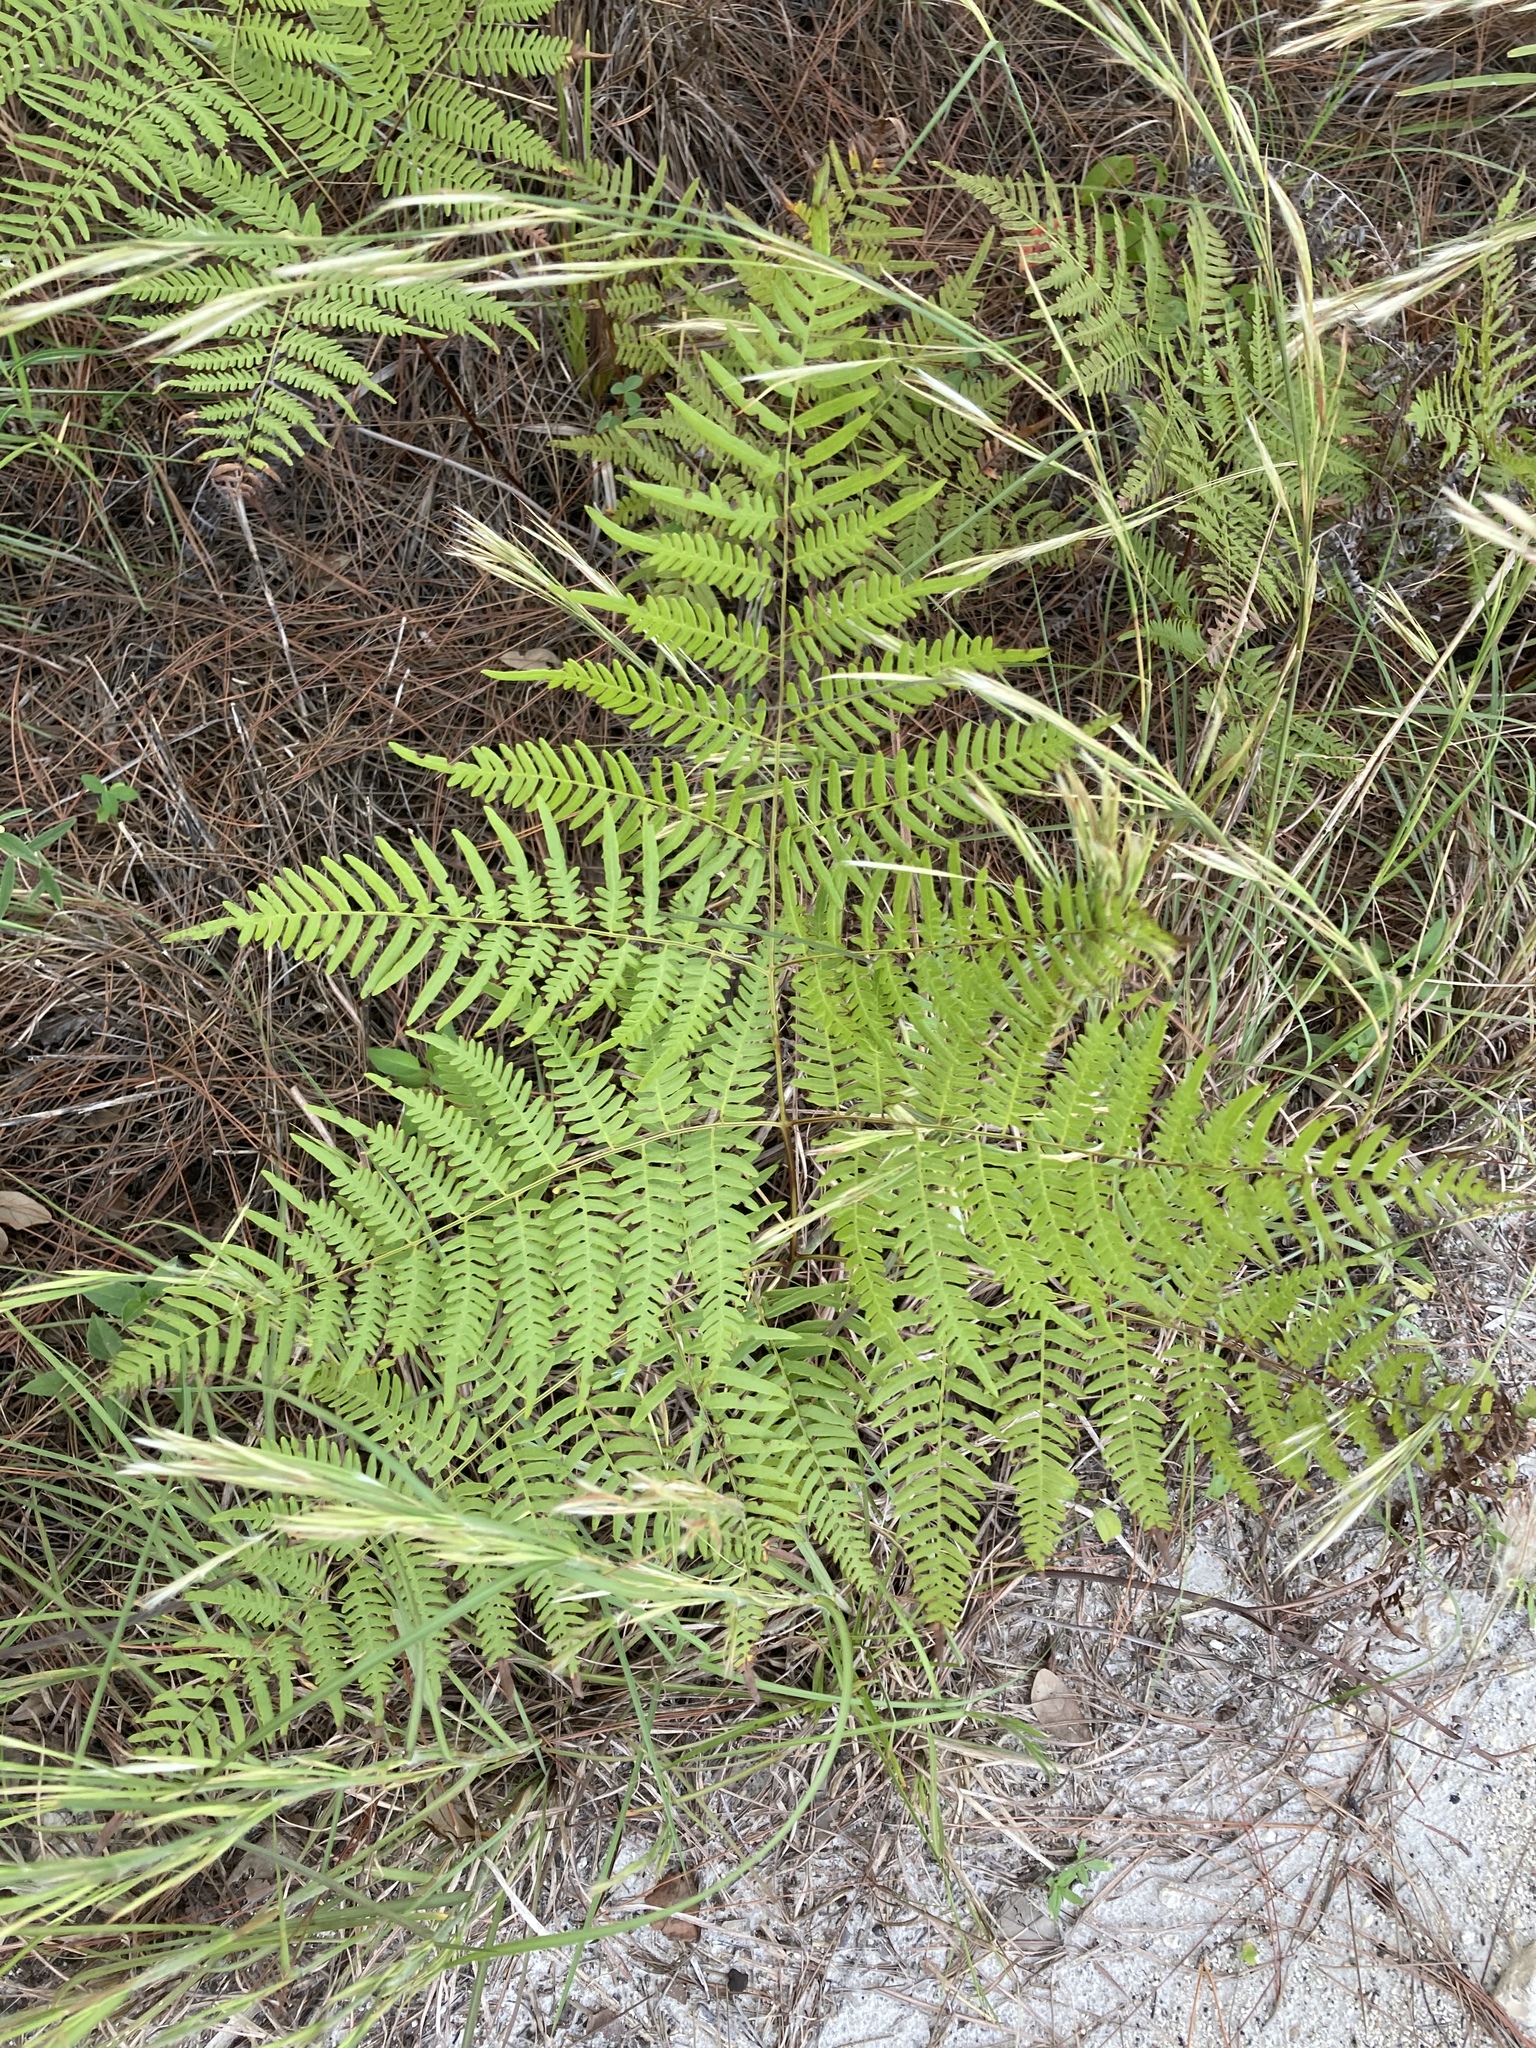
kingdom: Plantae
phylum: Tracheophyta
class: Polypodiopsida
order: Polypodiales
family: Dennstaedtiaceae
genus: Pteridium
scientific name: Pteridium
